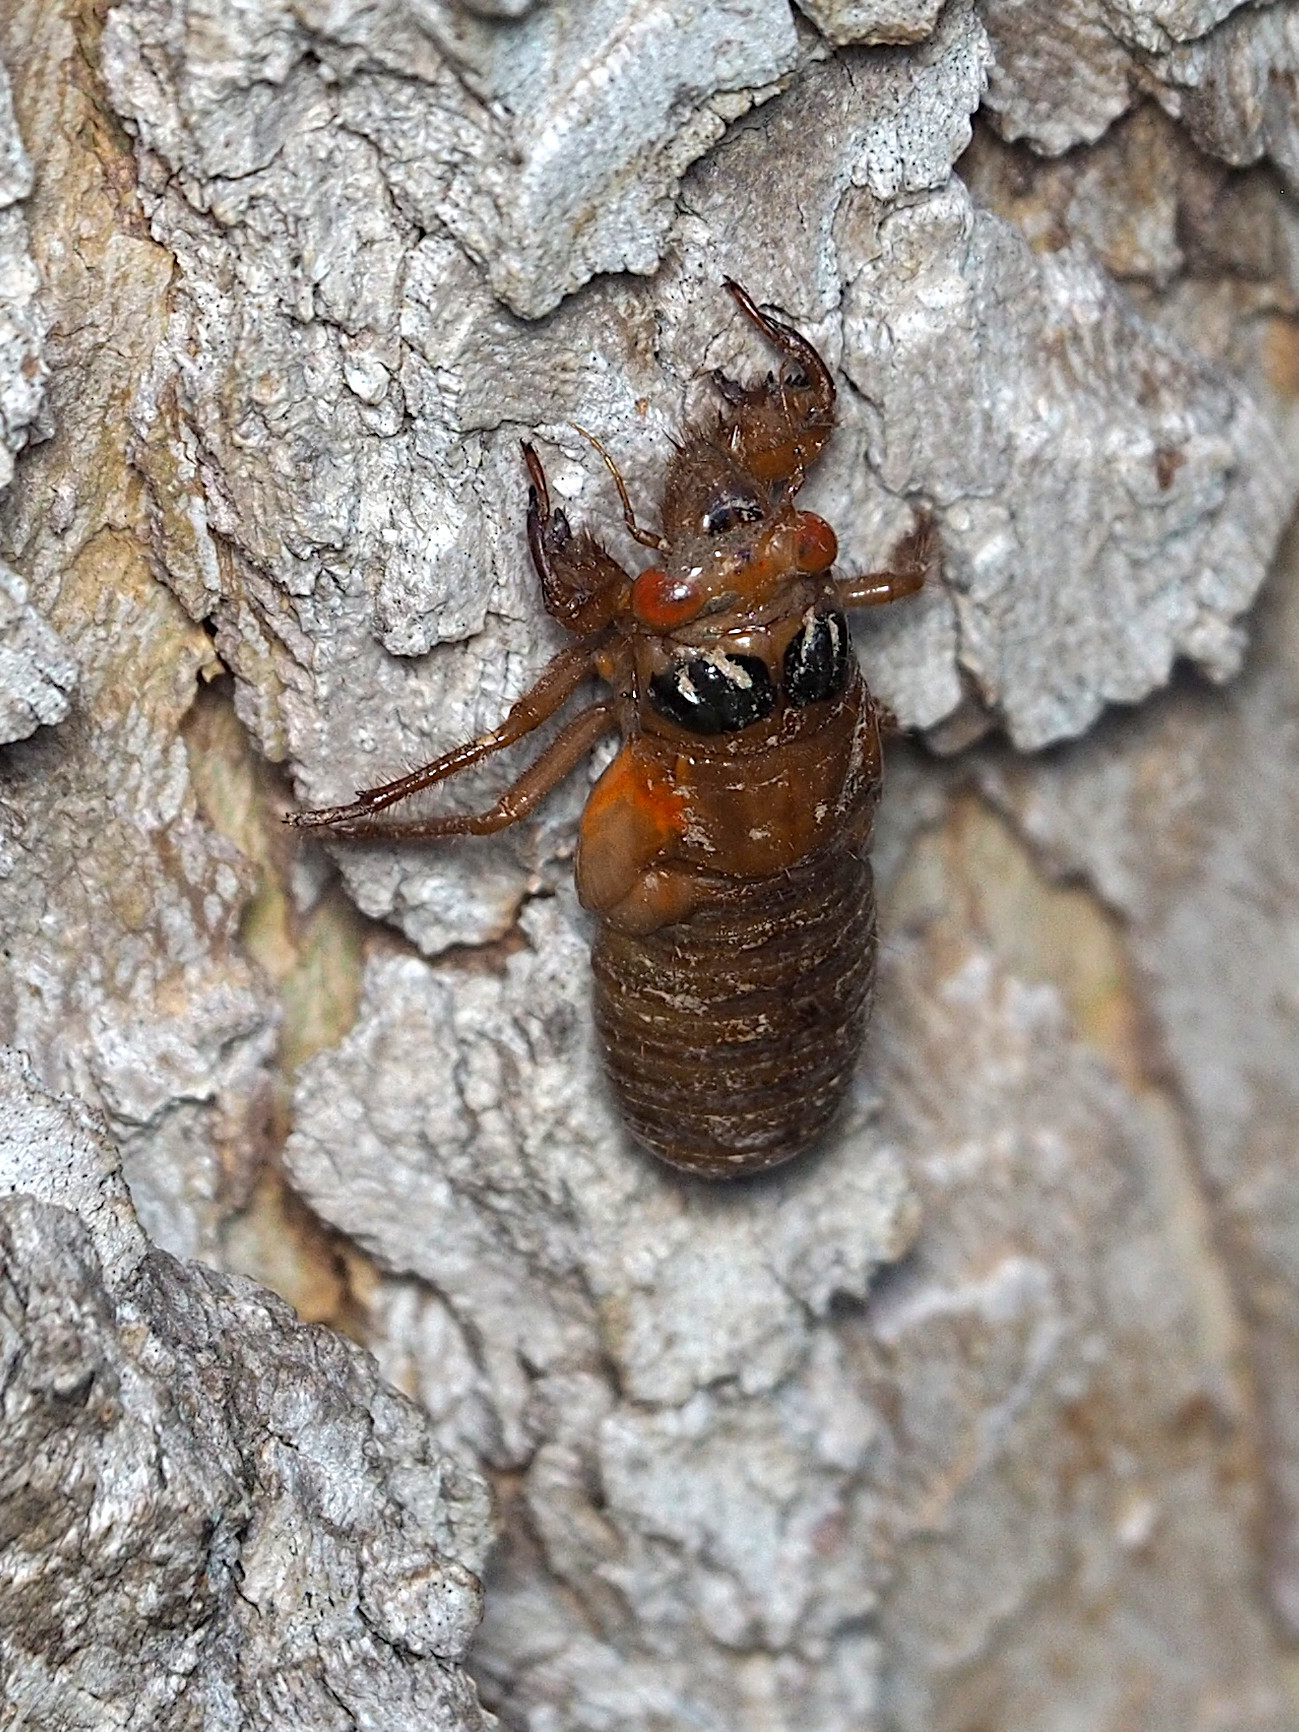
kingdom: Animalia
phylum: Arthropoda
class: Insecta
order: Hemiptera
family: Cicadidae
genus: Magicicada
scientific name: Magicicada
